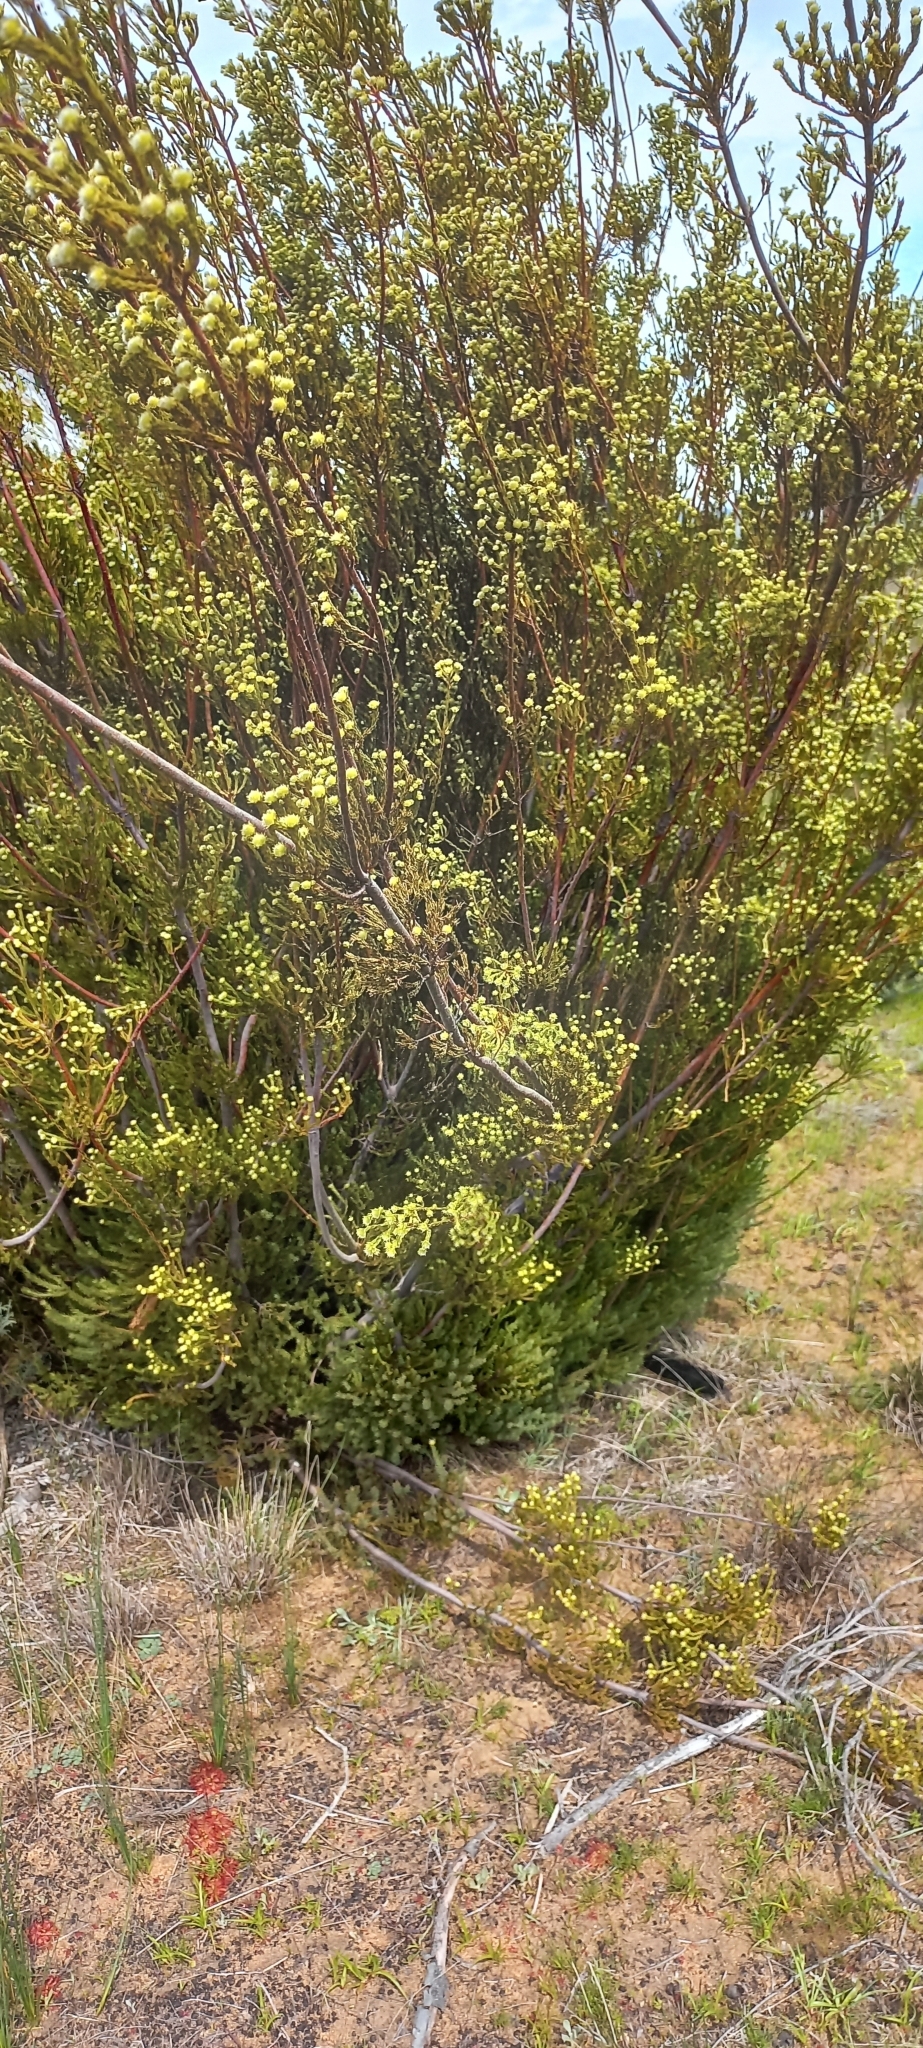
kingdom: Plantae
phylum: Tracheophyta
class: Magnoliopsida
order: Proteales
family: Proteaceae
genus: Leucadendron
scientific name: Leucadendron corymbosum
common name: Swartveld conebush
